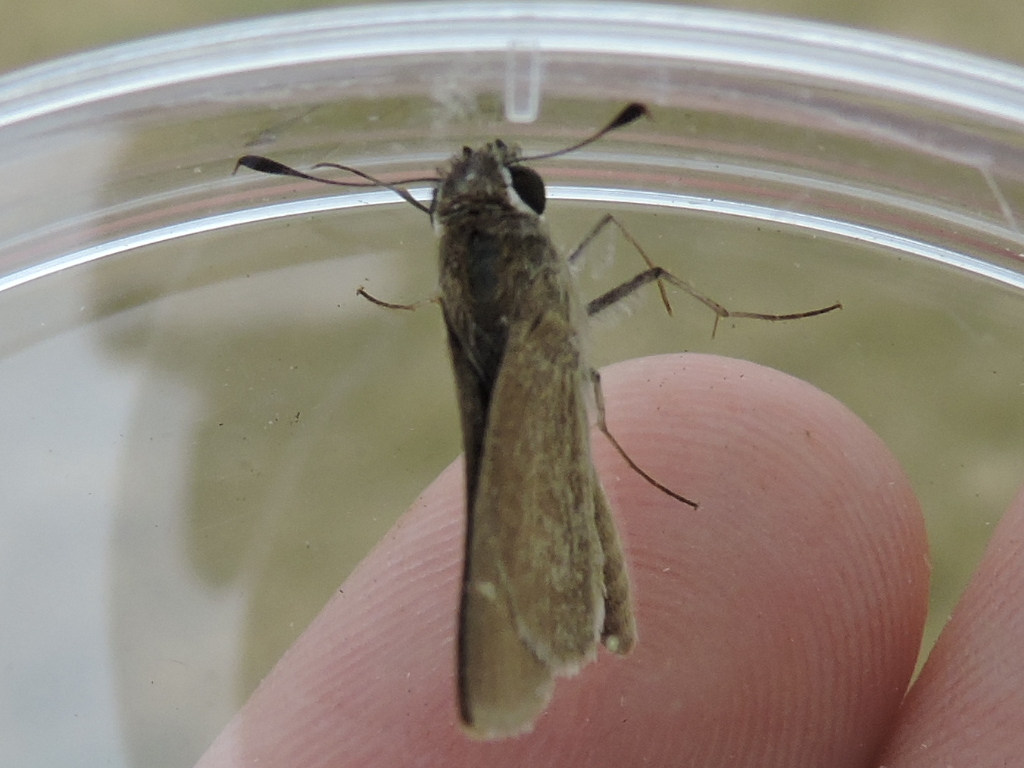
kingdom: Animalia
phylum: Arthropoda
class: Insecta
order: Lepidoptera
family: Hesperiidae
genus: Lerodea
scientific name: Lerodea eufala
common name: Eufala skipper
